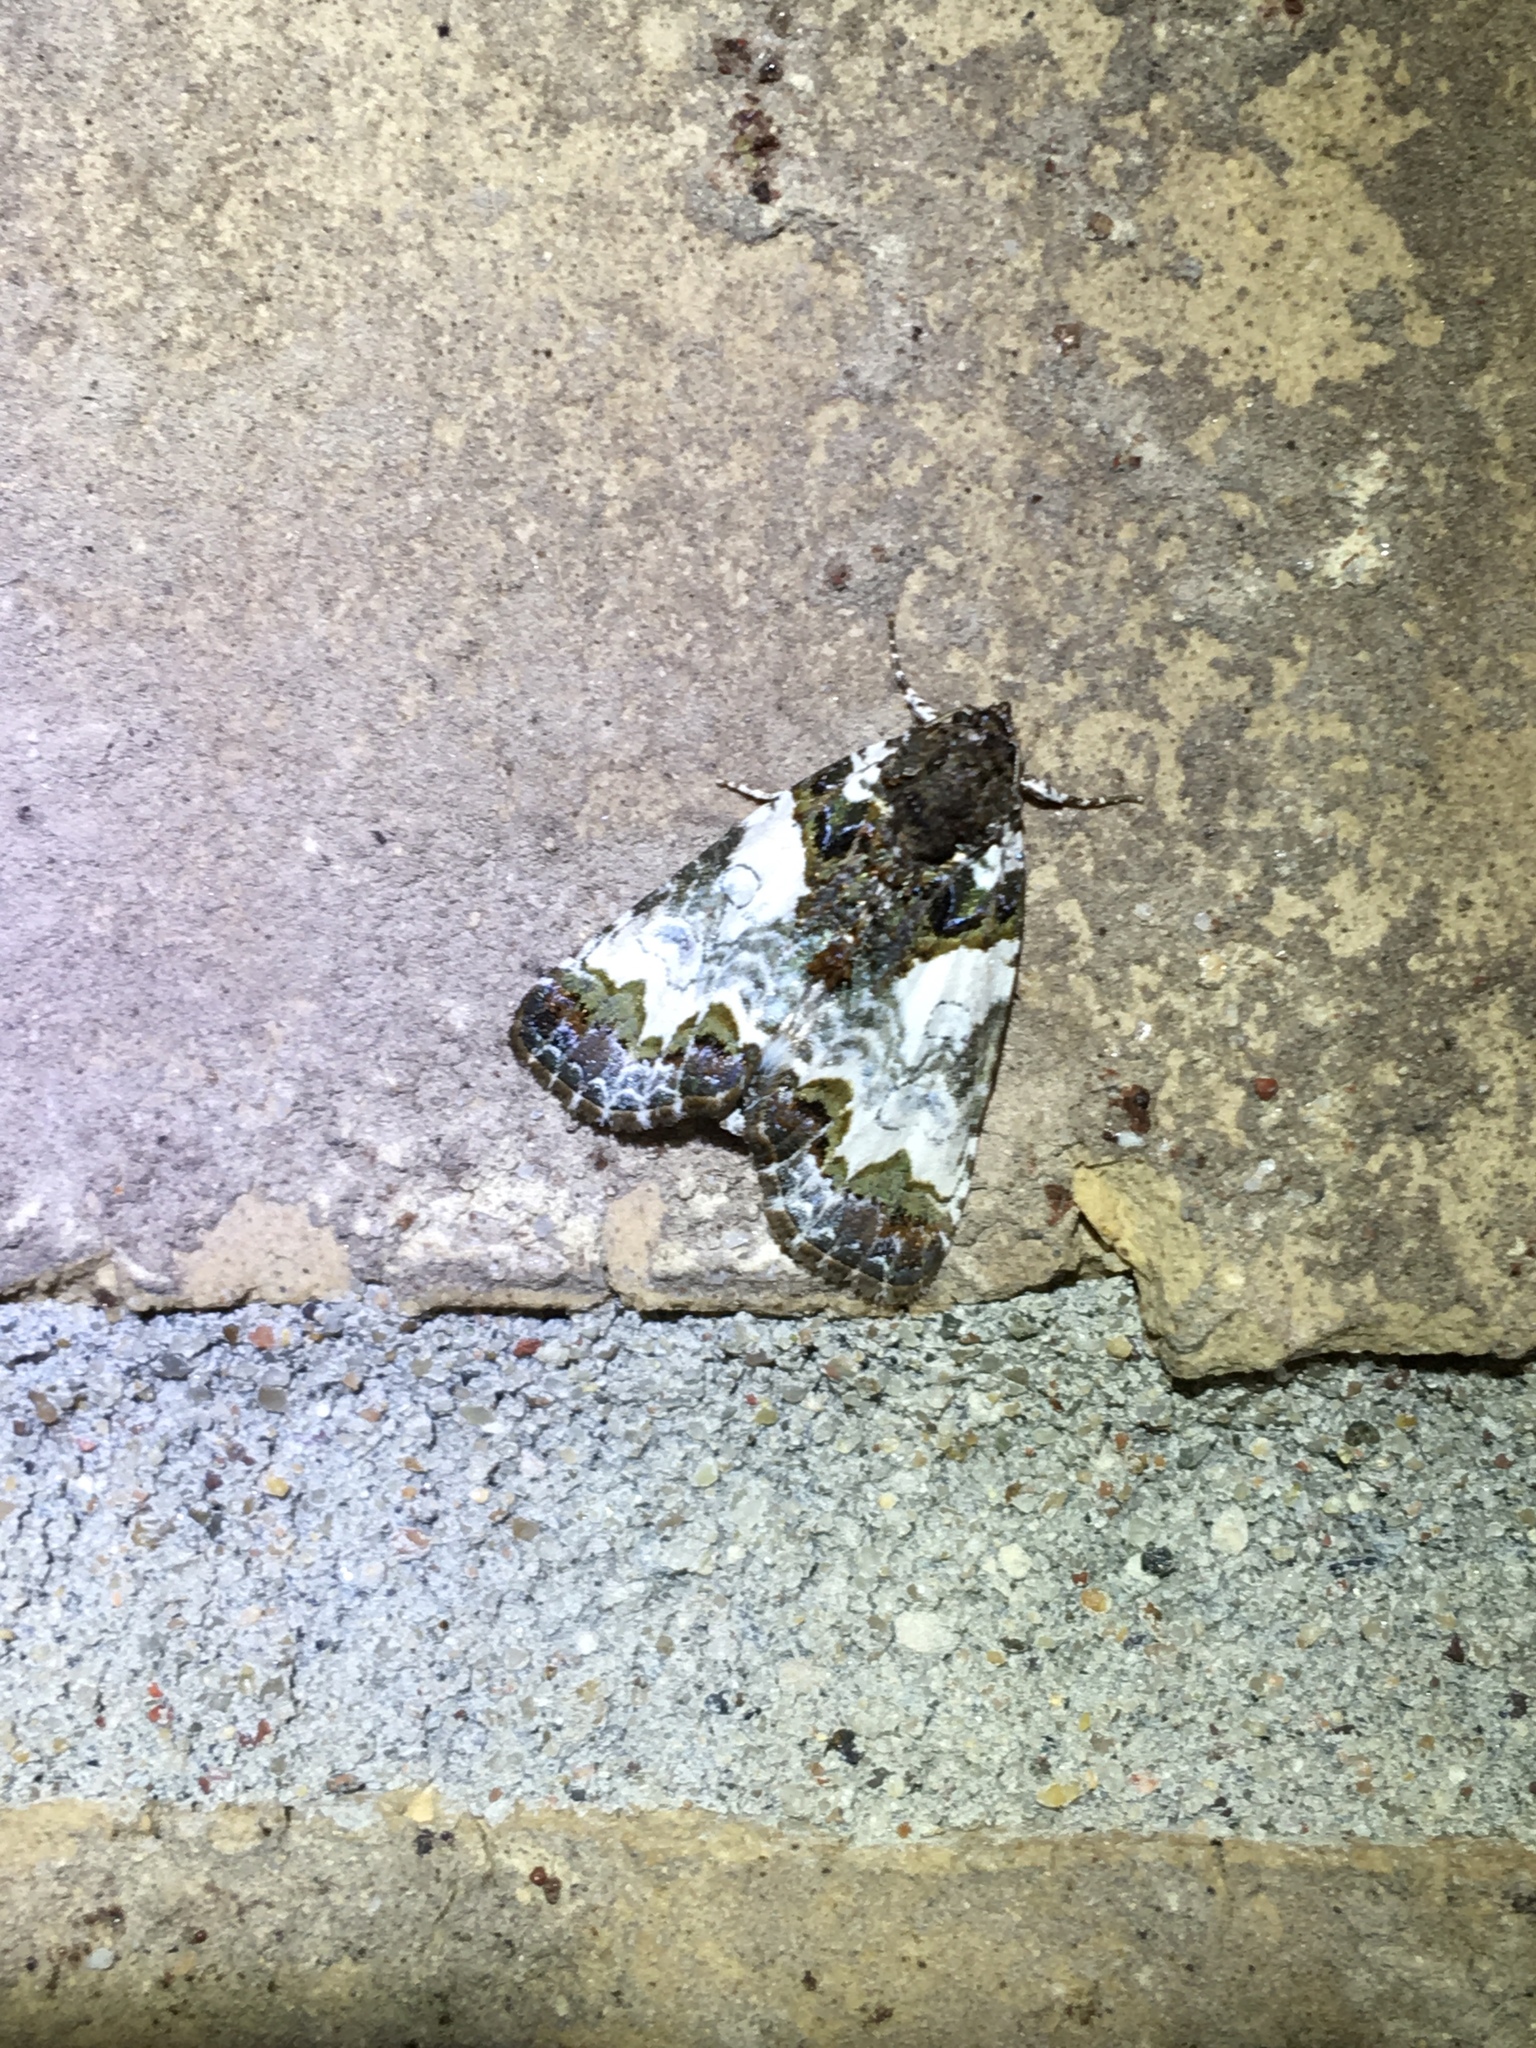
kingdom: Animalia
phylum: Arthropoda
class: Insecta
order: Lepidoptera
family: Noctuidae
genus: Cerma
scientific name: Cerma cerintha
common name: Tufted bird-dropping moth
